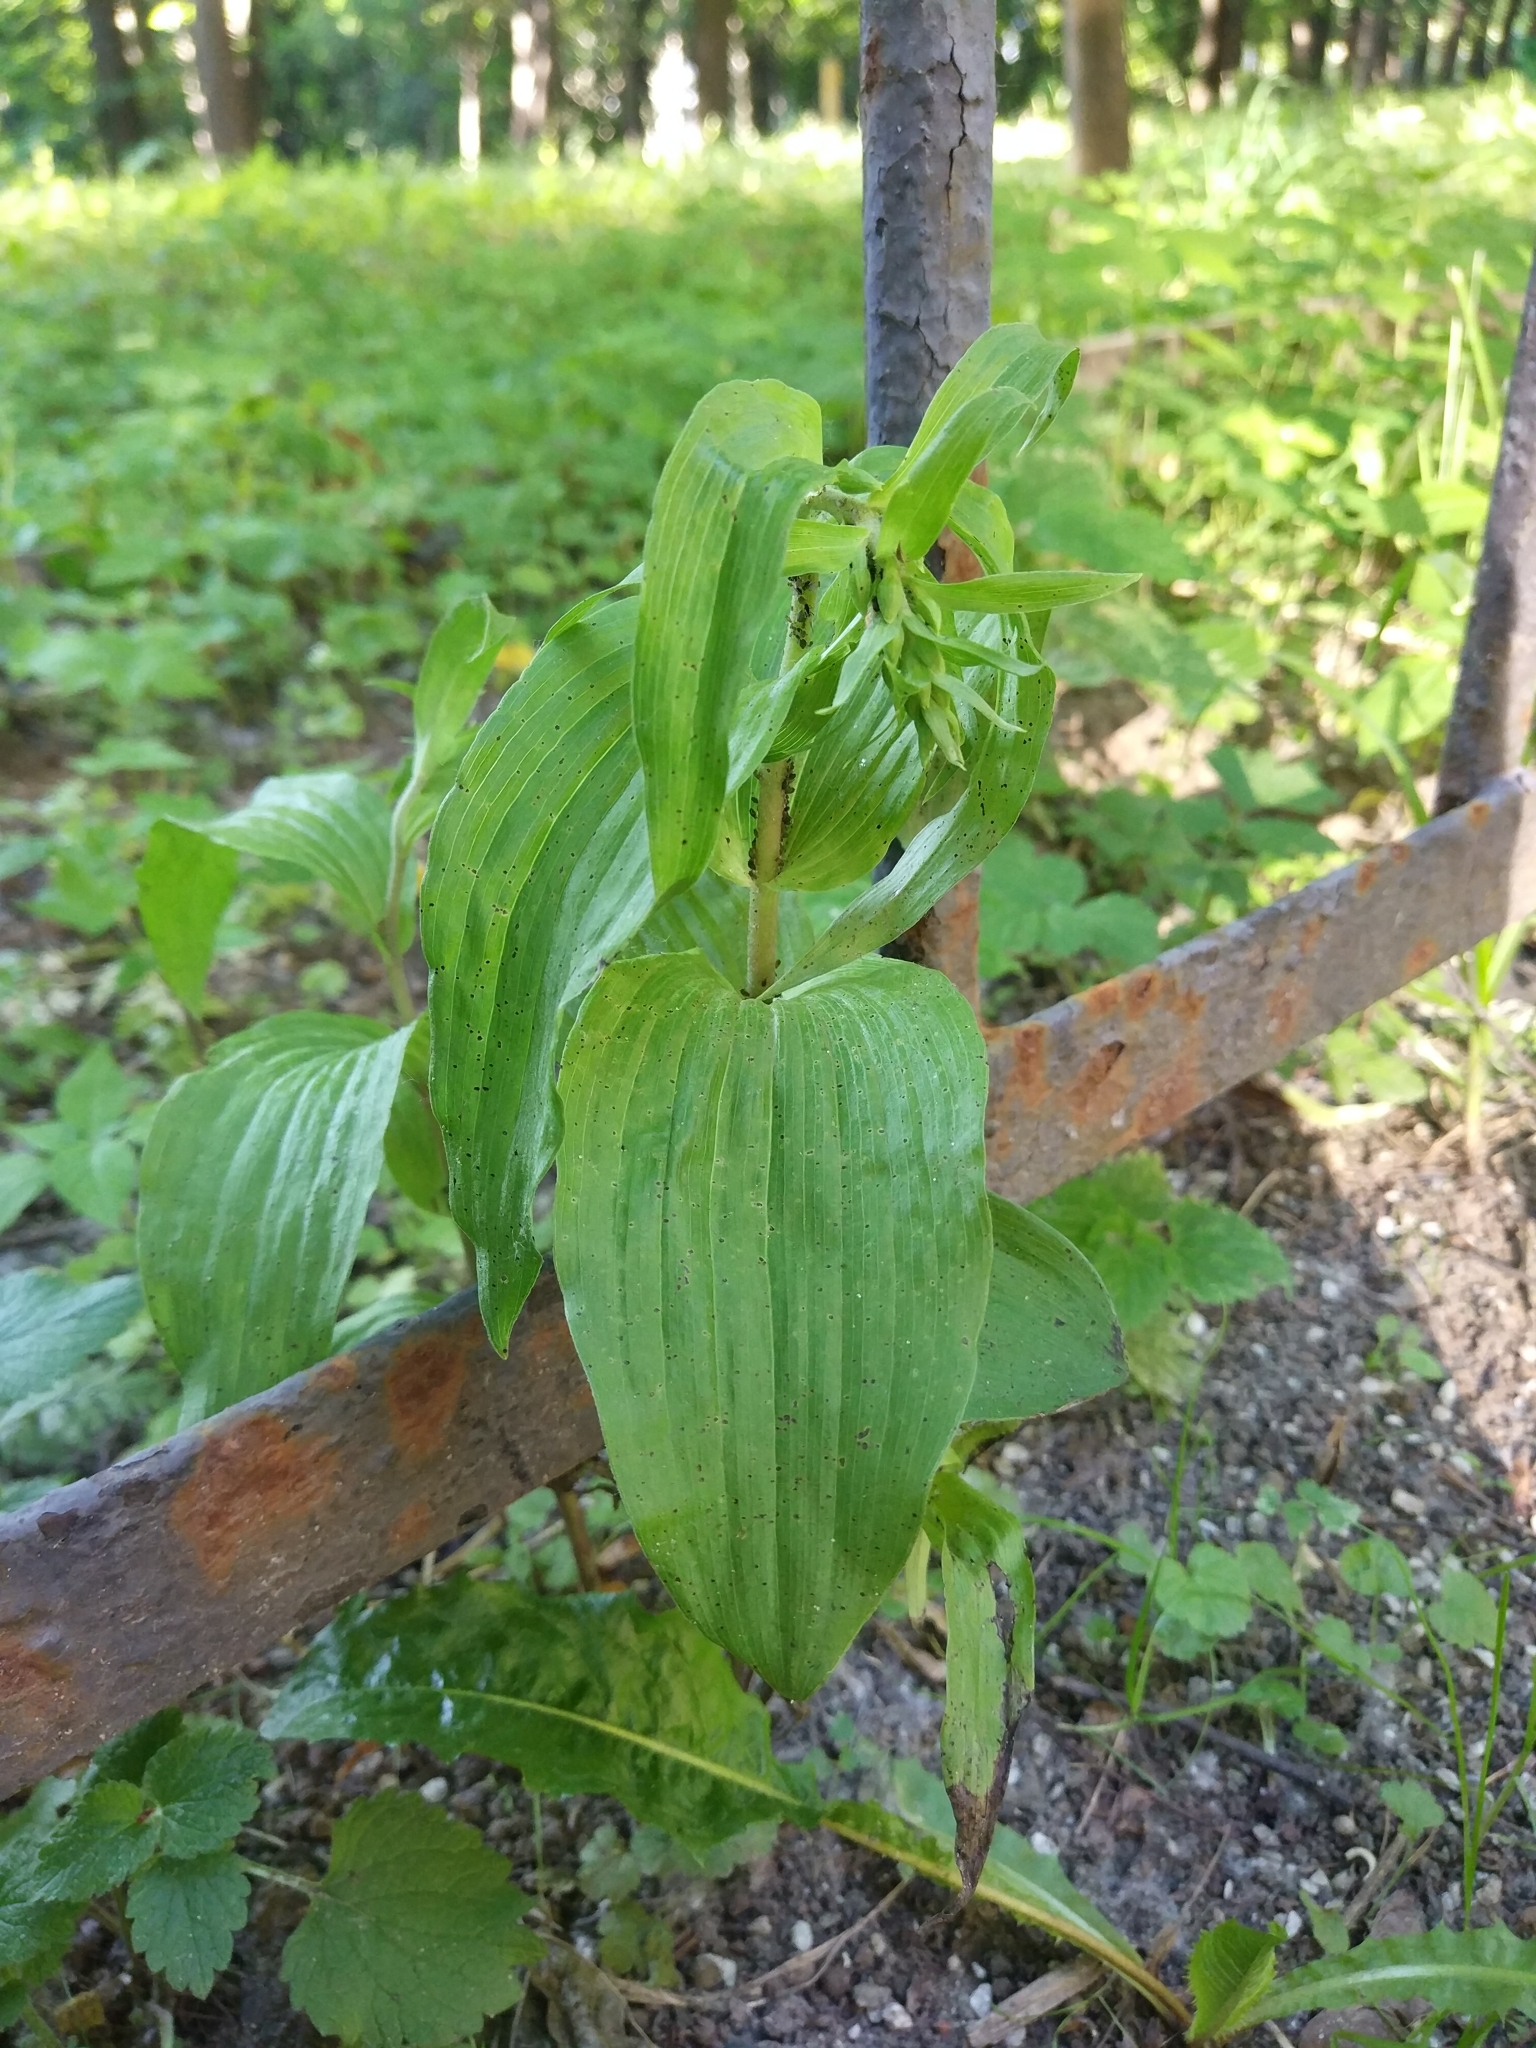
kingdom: Plantae
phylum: Tracheophyta
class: Liliopsida
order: Asparagales
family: Orchidaceae
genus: Epipactis
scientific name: Epipactis helleborine
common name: Broad-leaved helleborine
